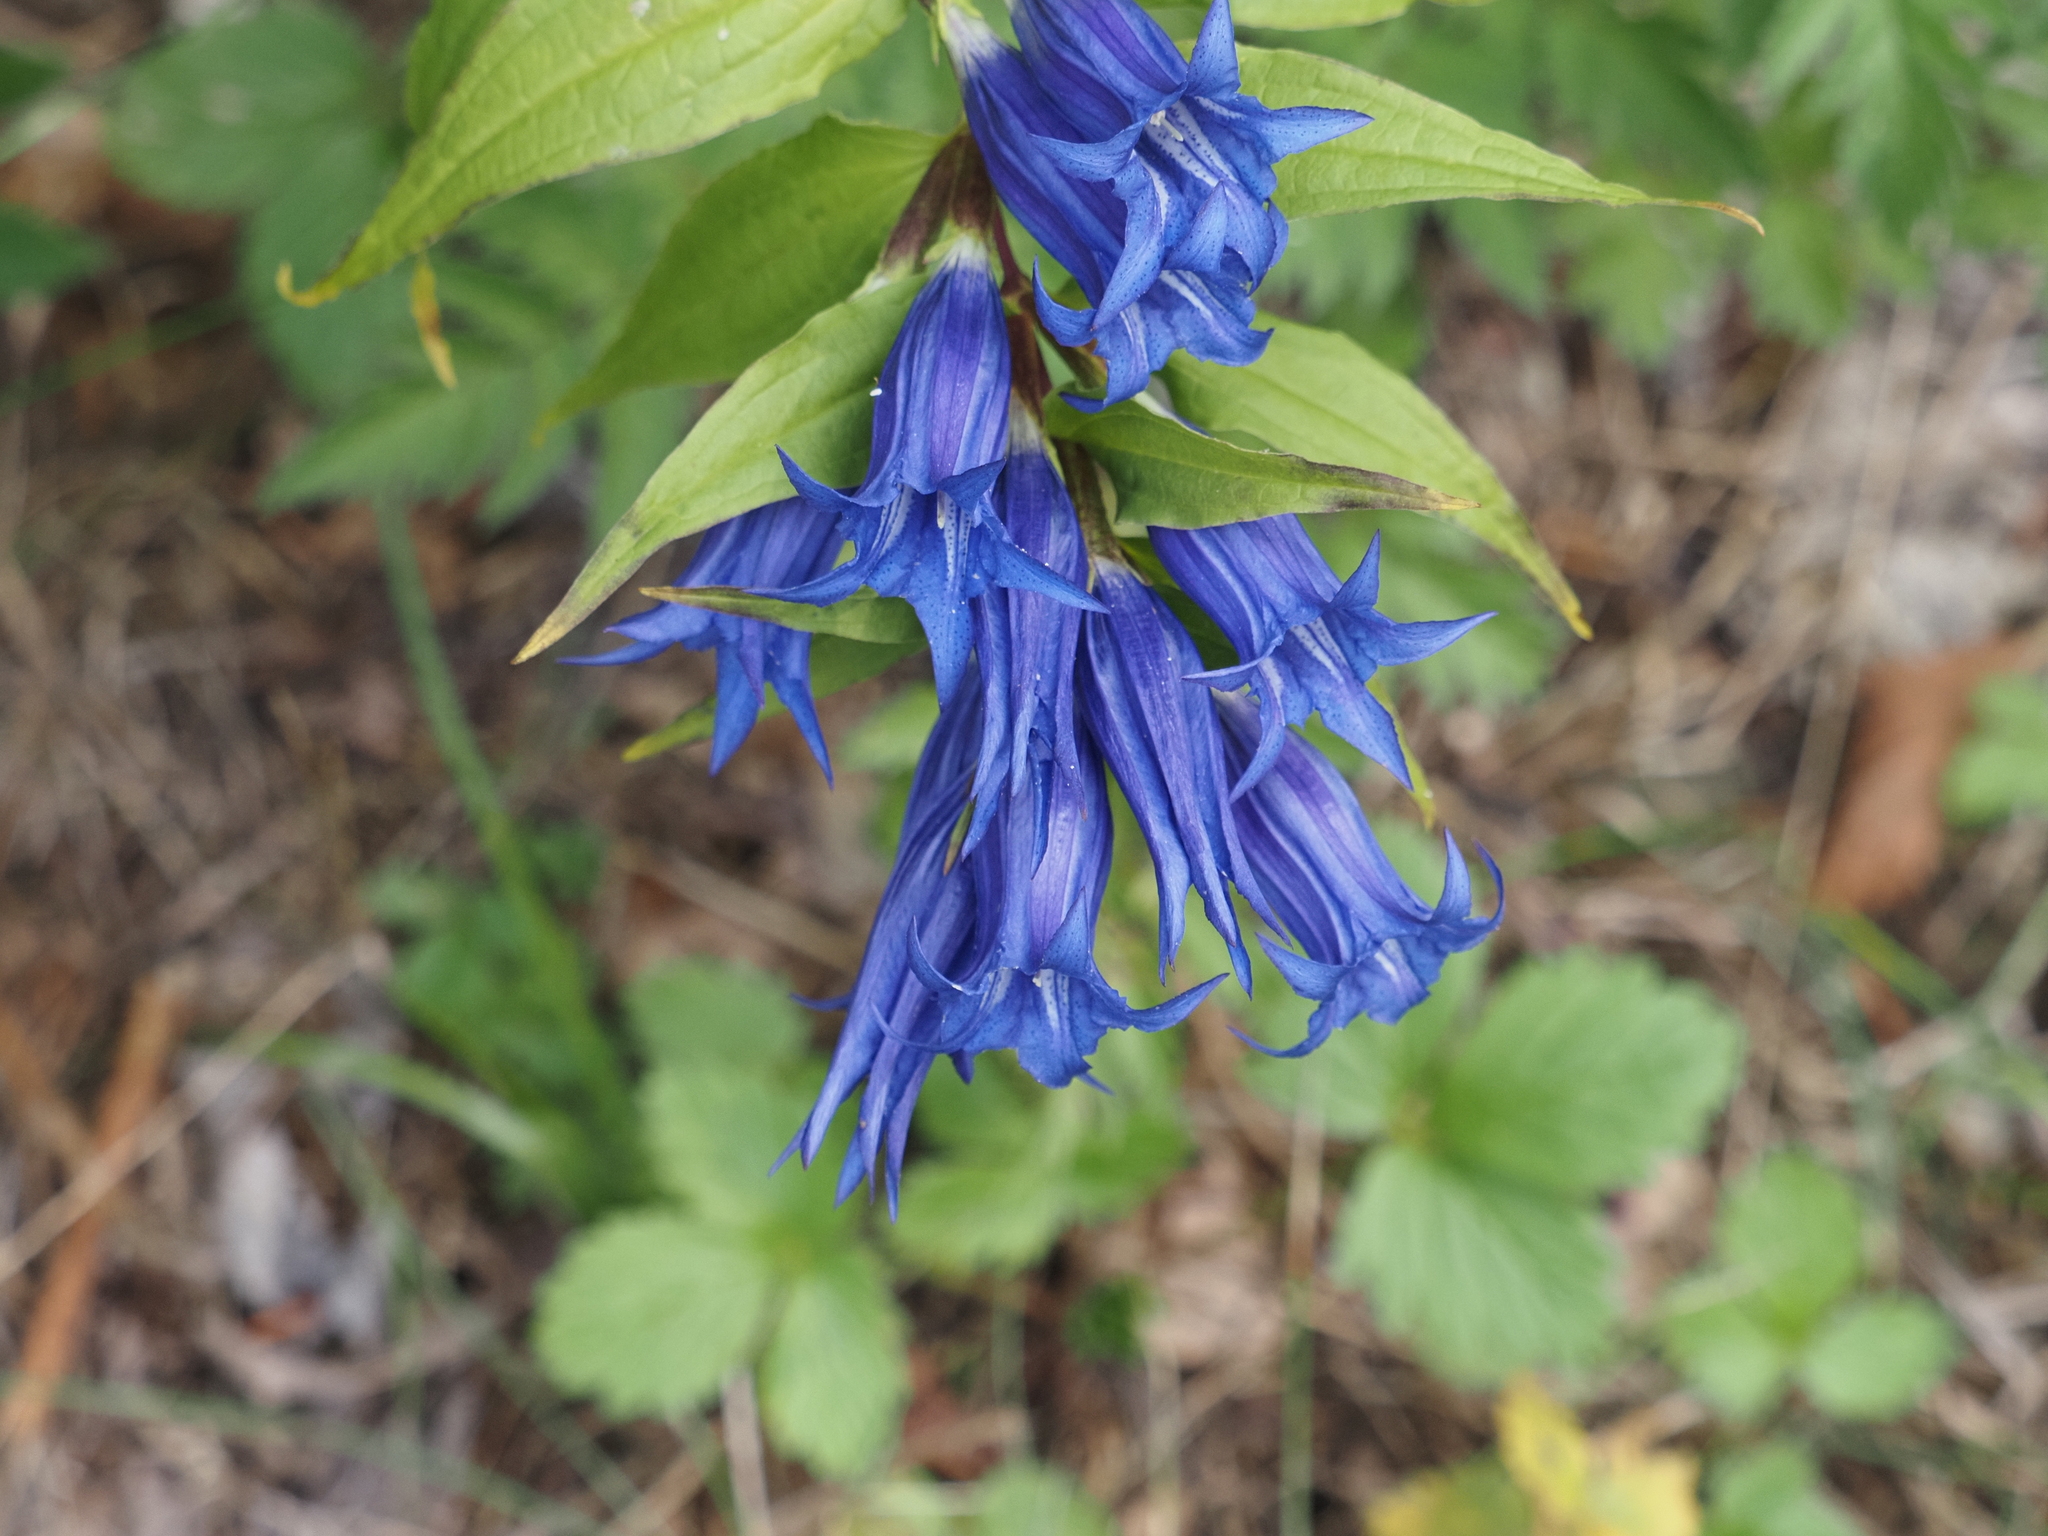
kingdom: Plantae
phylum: Tracheophyta
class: Magnoliopsida
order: Gentianales
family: Gentianaceae
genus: Gentiana
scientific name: Gentiana asclepiadea
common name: Willow gentian
